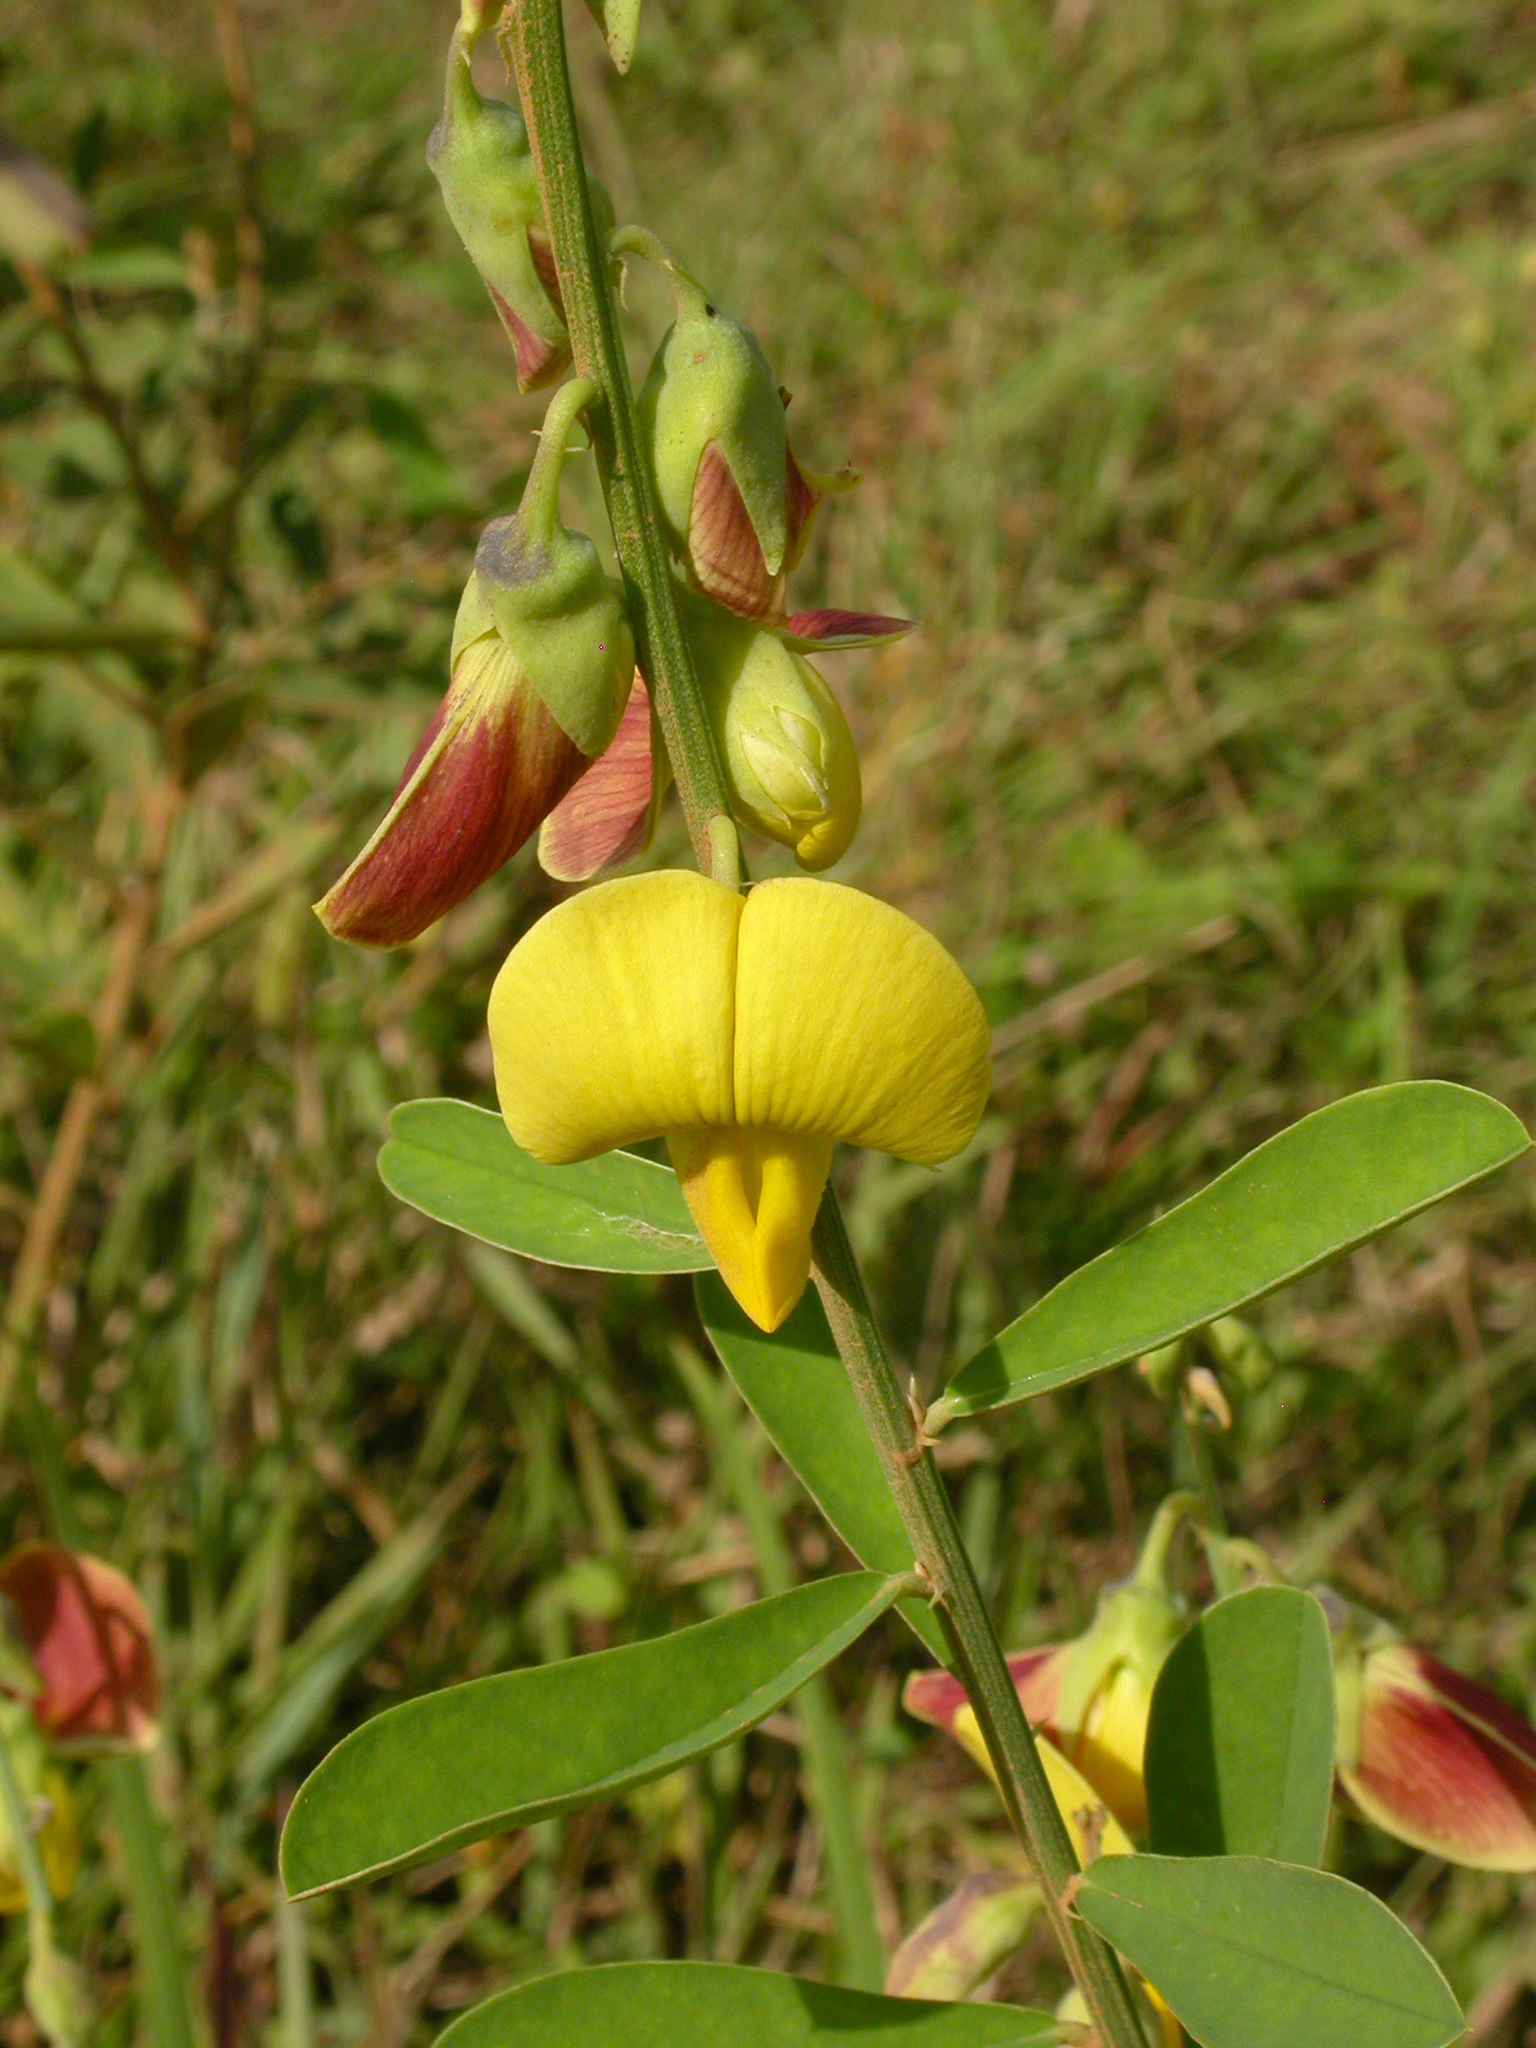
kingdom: Plantae
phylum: Tracheophyta
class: Magnoliopsida
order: Fabales
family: Fabaceae
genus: Crotalaria
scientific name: Crotalaria retusa
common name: Rattleweed
